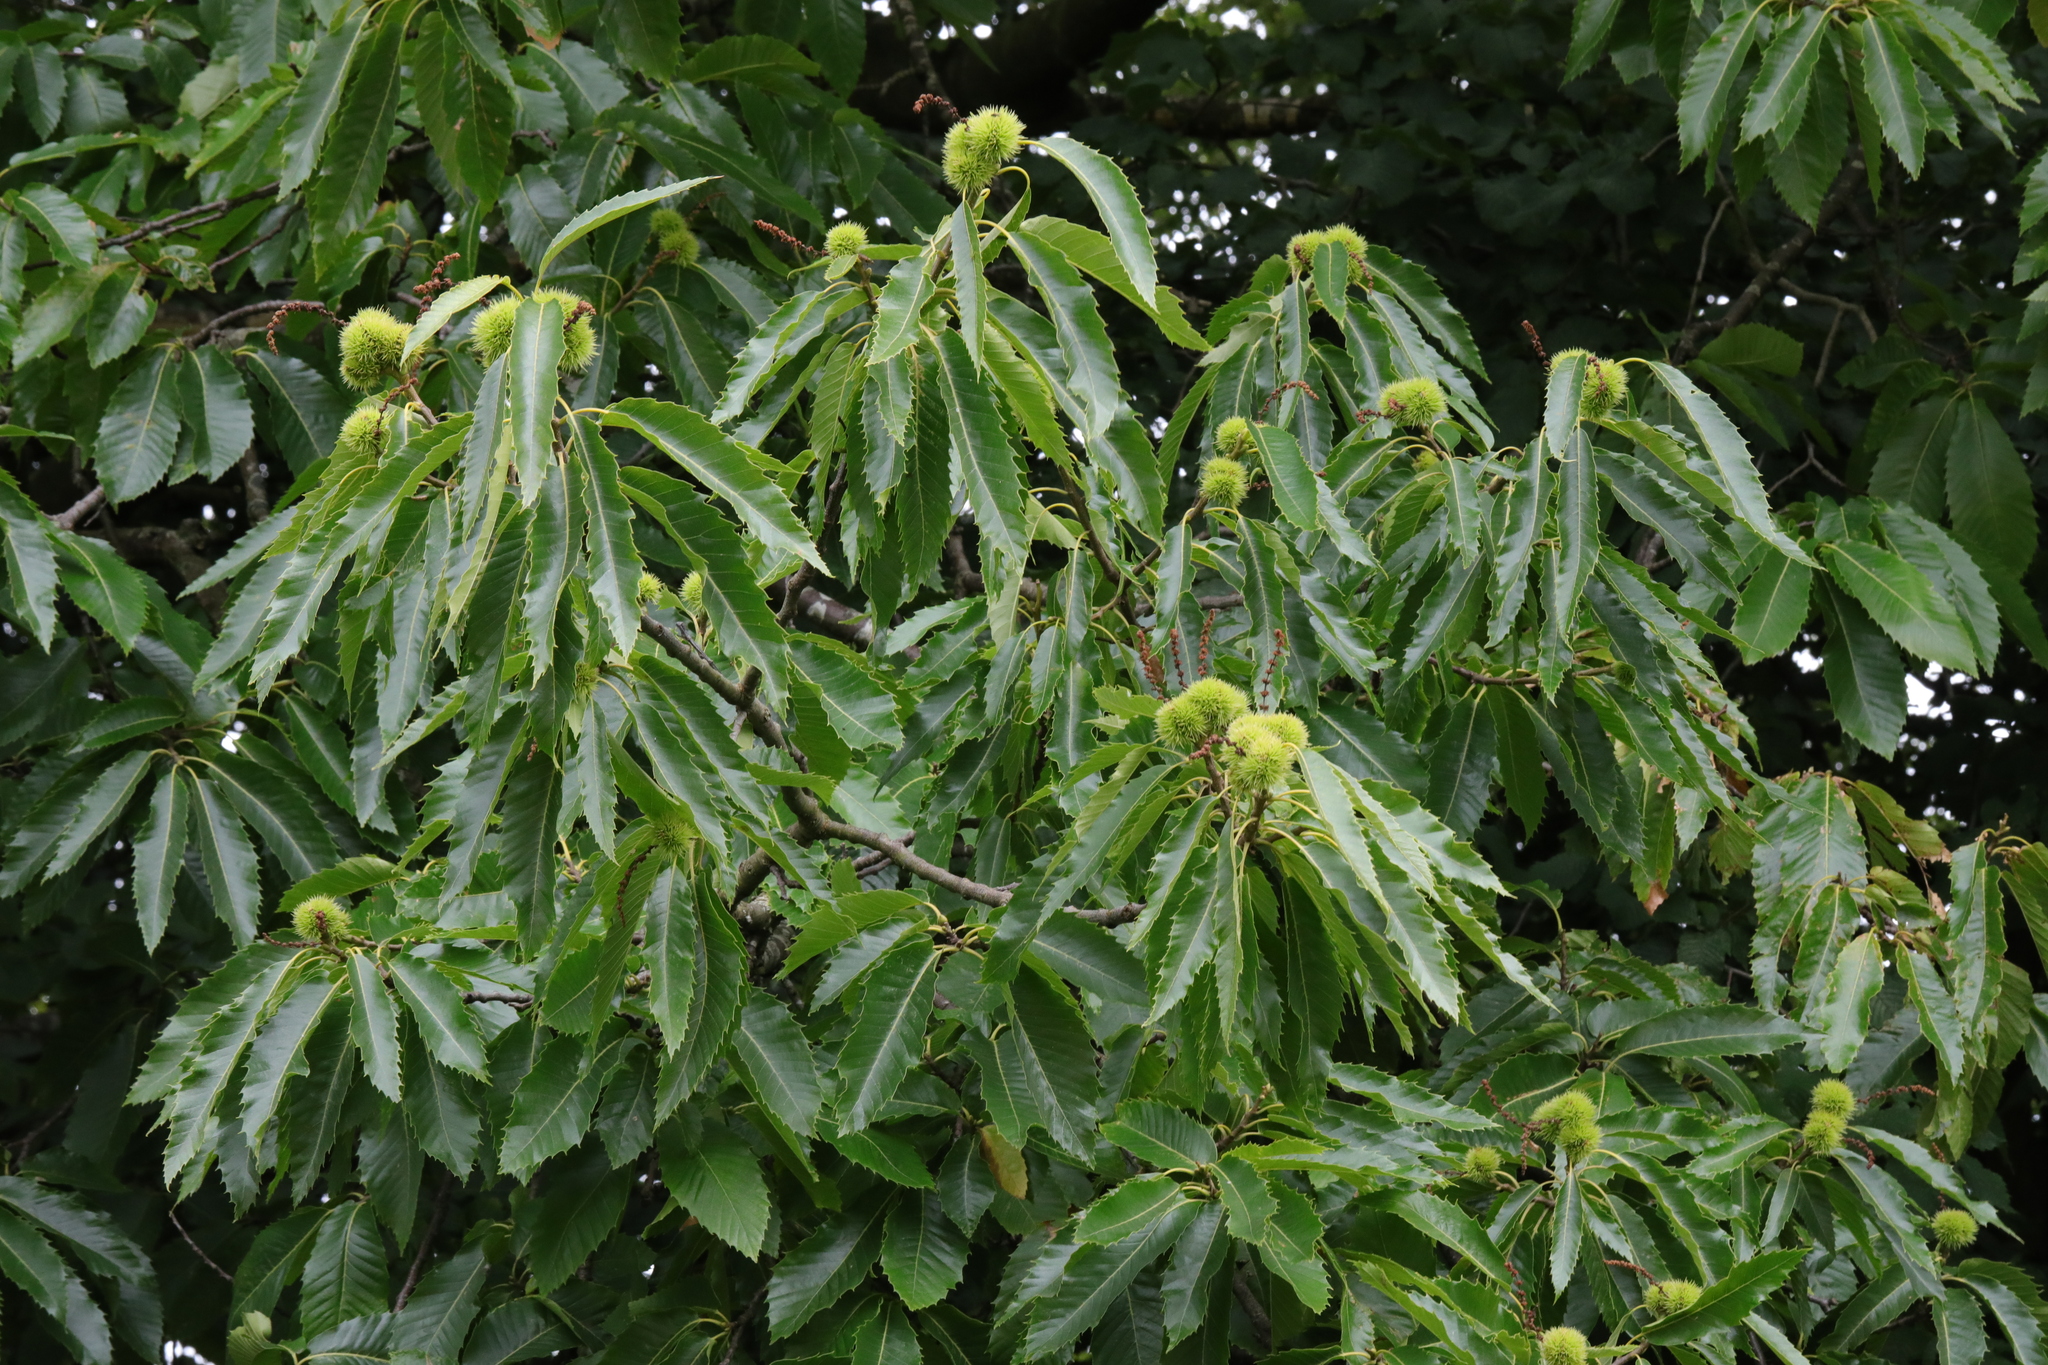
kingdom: Plantae
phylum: Tracheophyta
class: Magnoliopsida
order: Fagales
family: Fagaceae
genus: Castanea
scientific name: Castanea sativa
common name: Sweet chestnut
